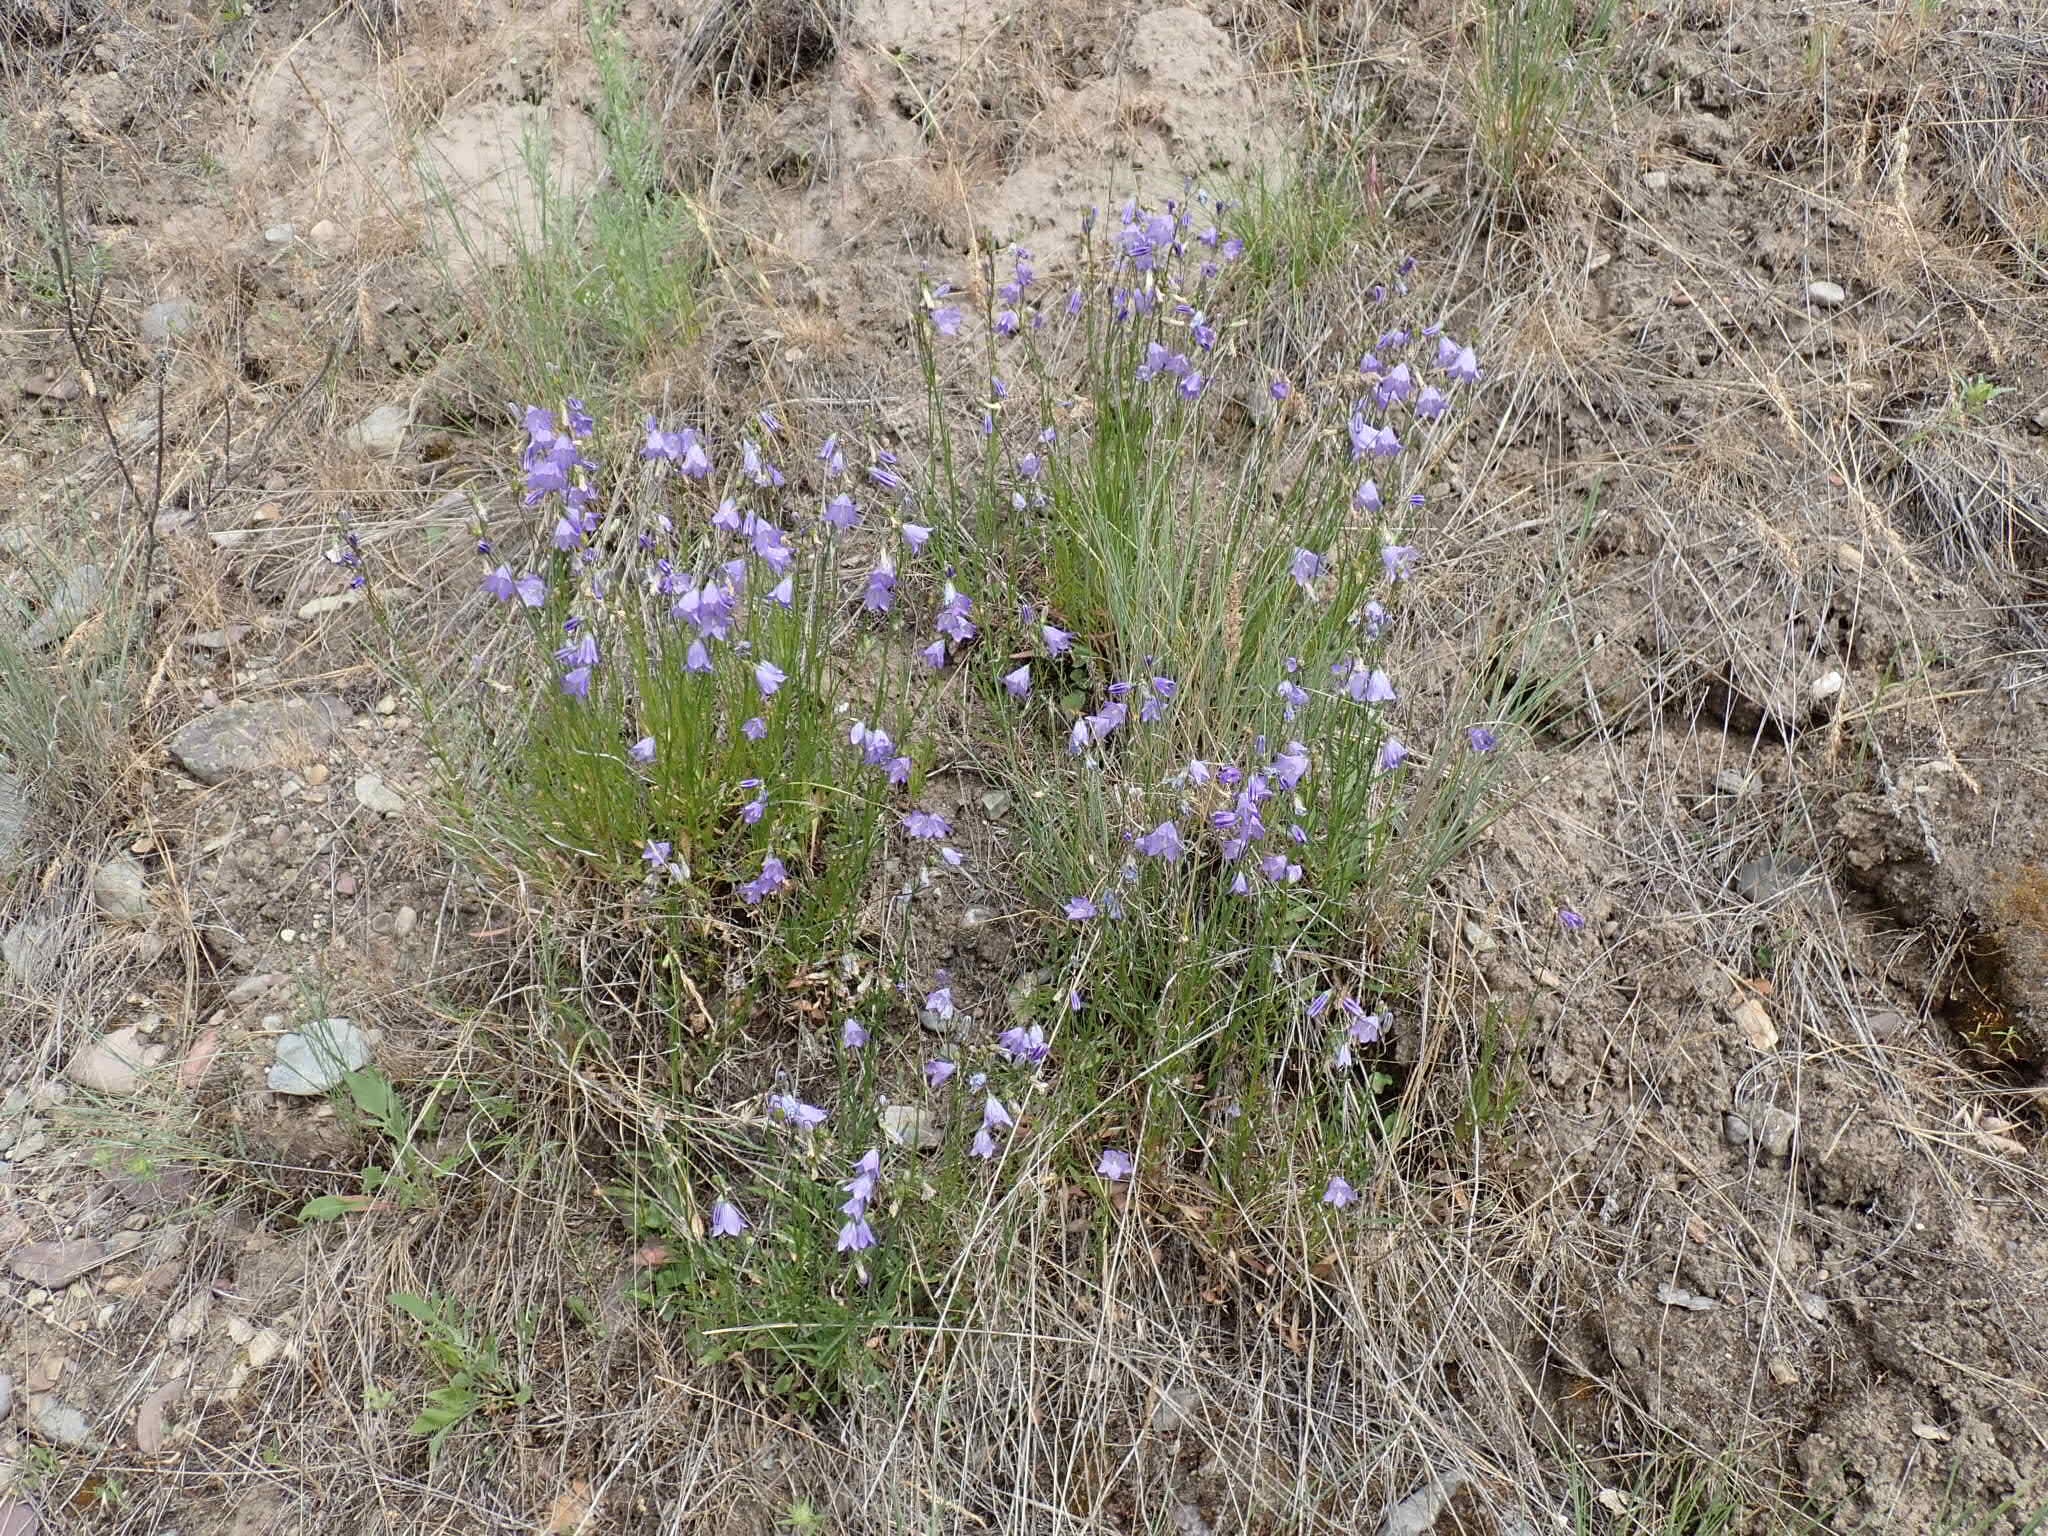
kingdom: Plantae
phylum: Tracheophyta
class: Magnoliopsida
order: Asterales
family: Campanulaceae
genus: Campanula
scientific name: Campanula petiolata
